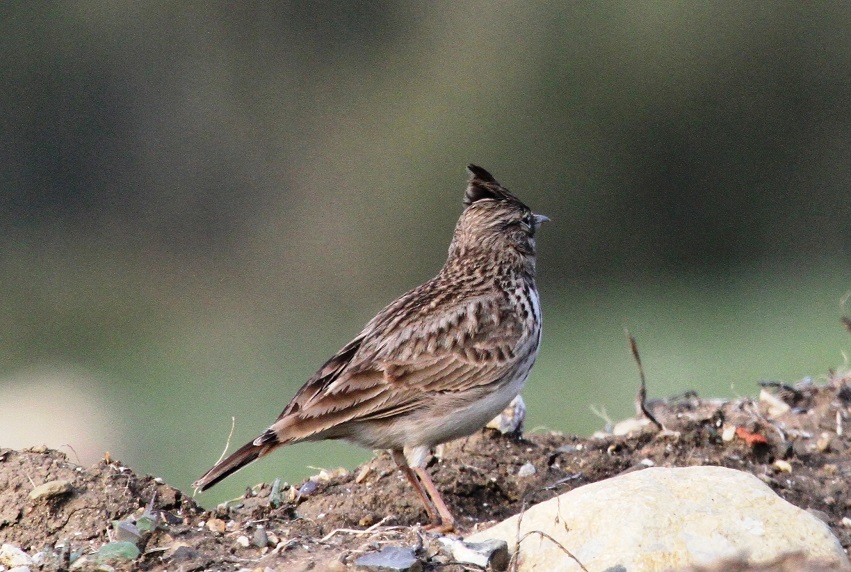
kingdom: Animalia
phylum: Chordata
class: Aves
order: Passeriformes
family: Alaudidae
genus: Galerida
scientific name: Galerida theklae
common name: Thekla lark
